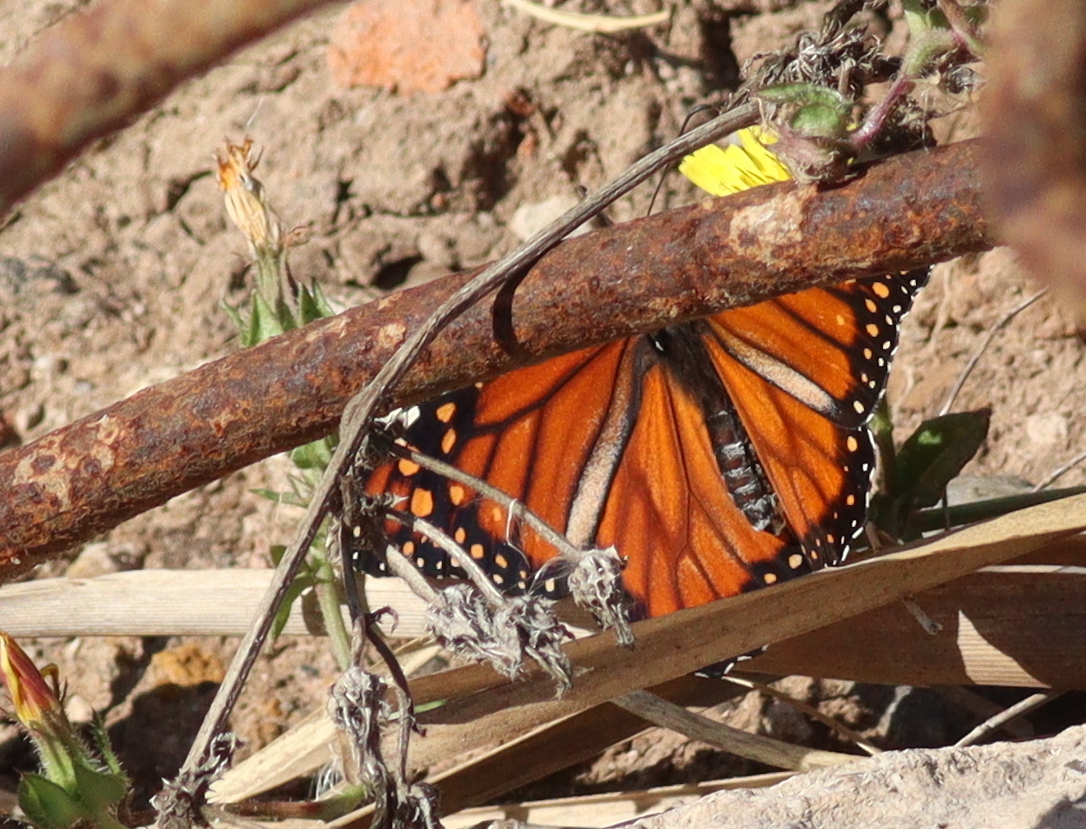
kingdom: Animalia
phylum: Arthropoda
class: Insecta
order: Lepidoptera
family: Nymphalidae
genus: Danaus
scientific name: Danaus erippus
